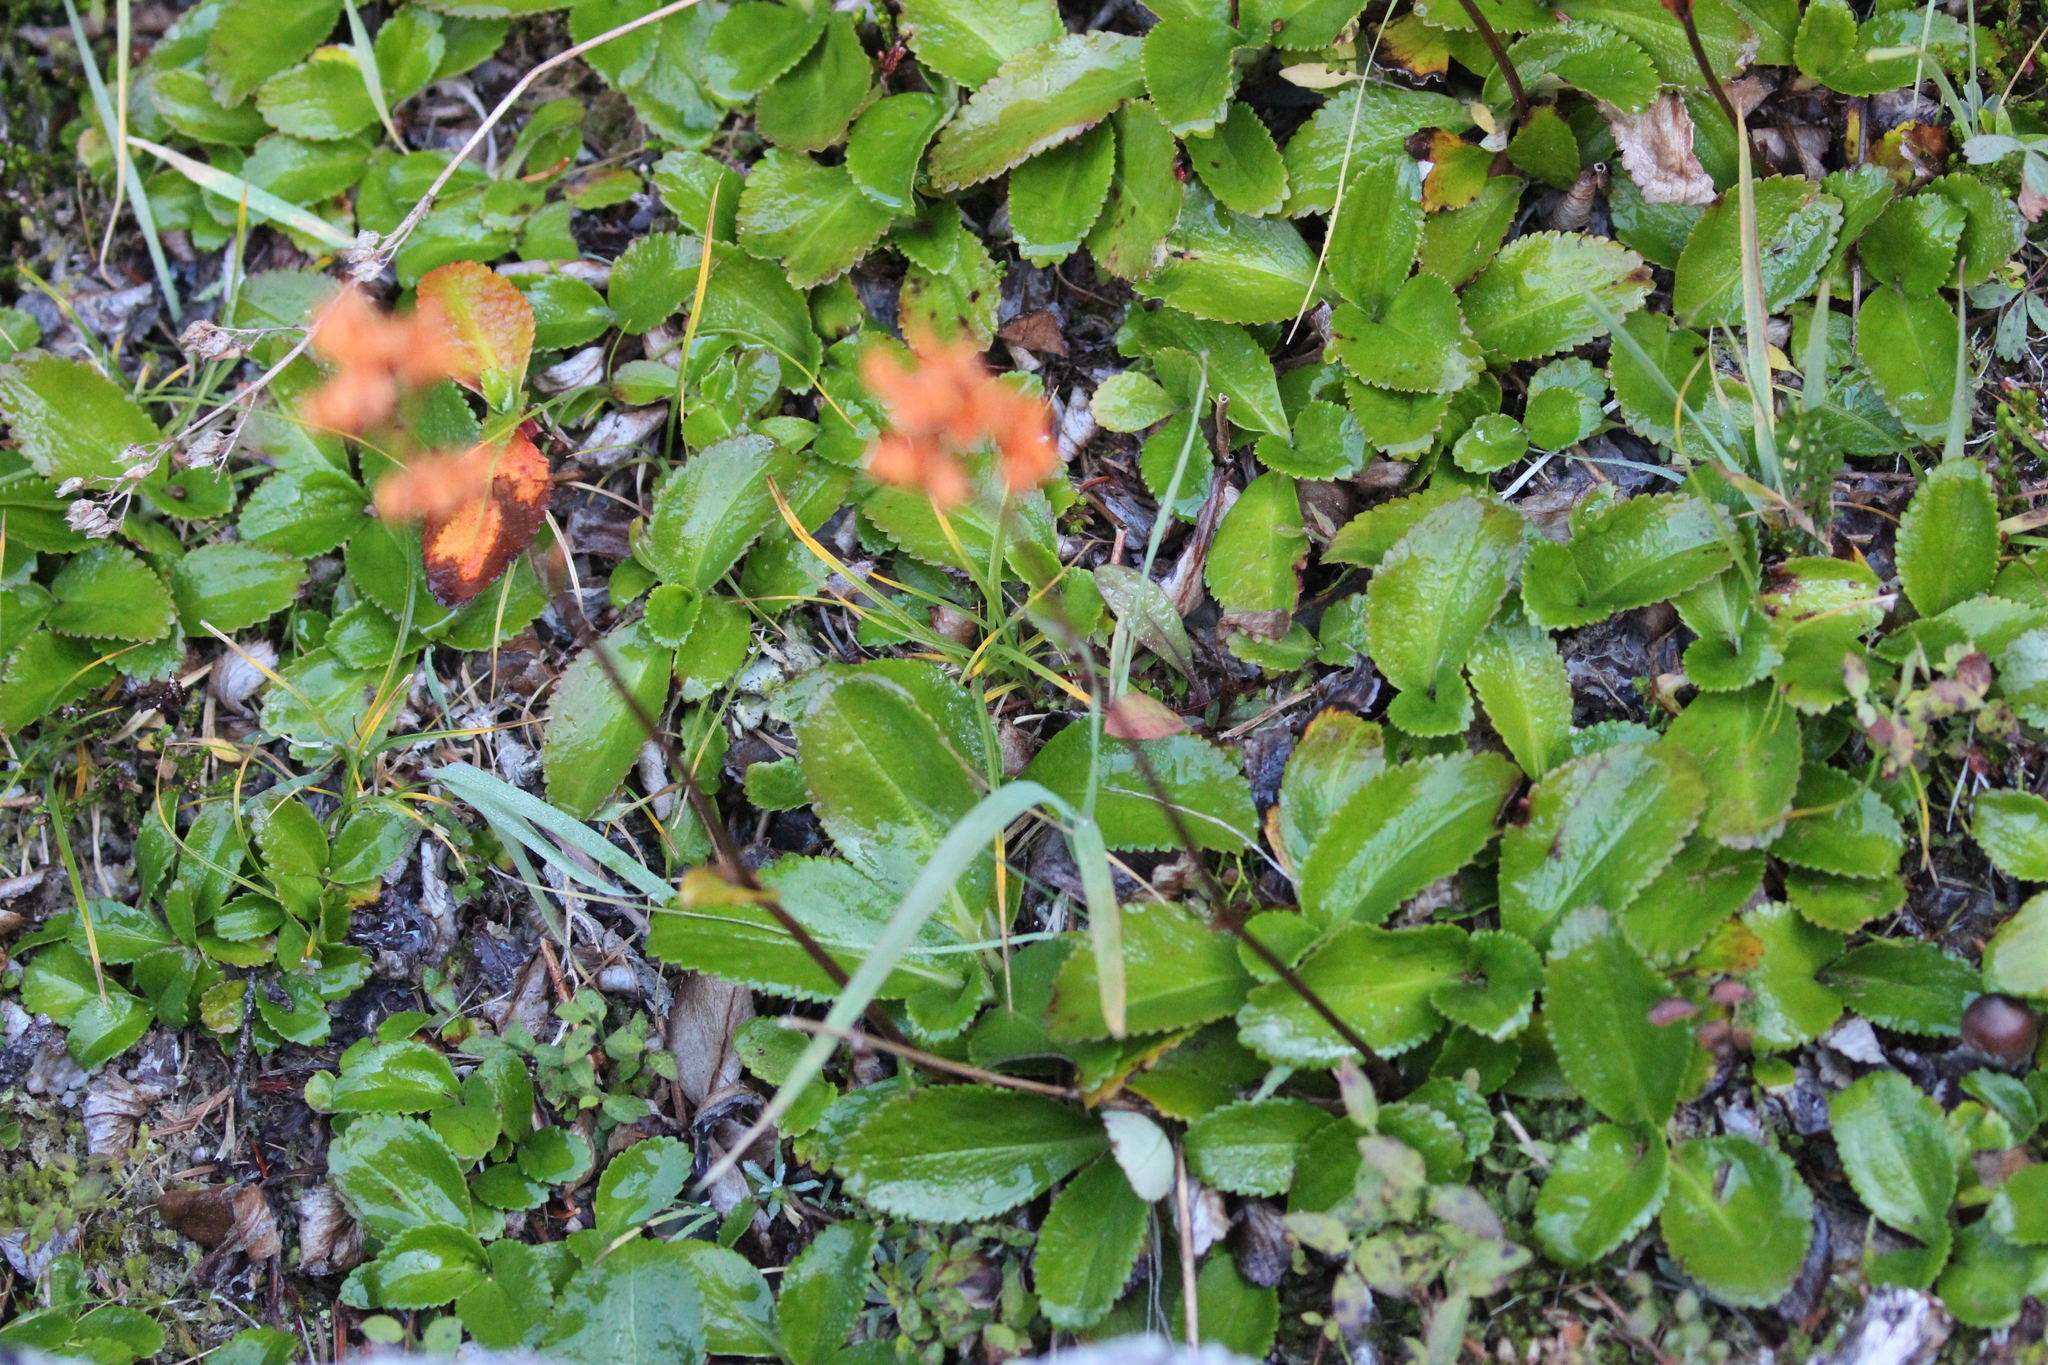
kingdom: Plantae
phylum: Tracheophyta
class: Magnoliopsida
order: Saxifragales
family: Saxifragaceae
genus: Leptarrhena
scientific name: Leptarrhena pyrolifolia
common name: Leatherleaf-saxifrage
